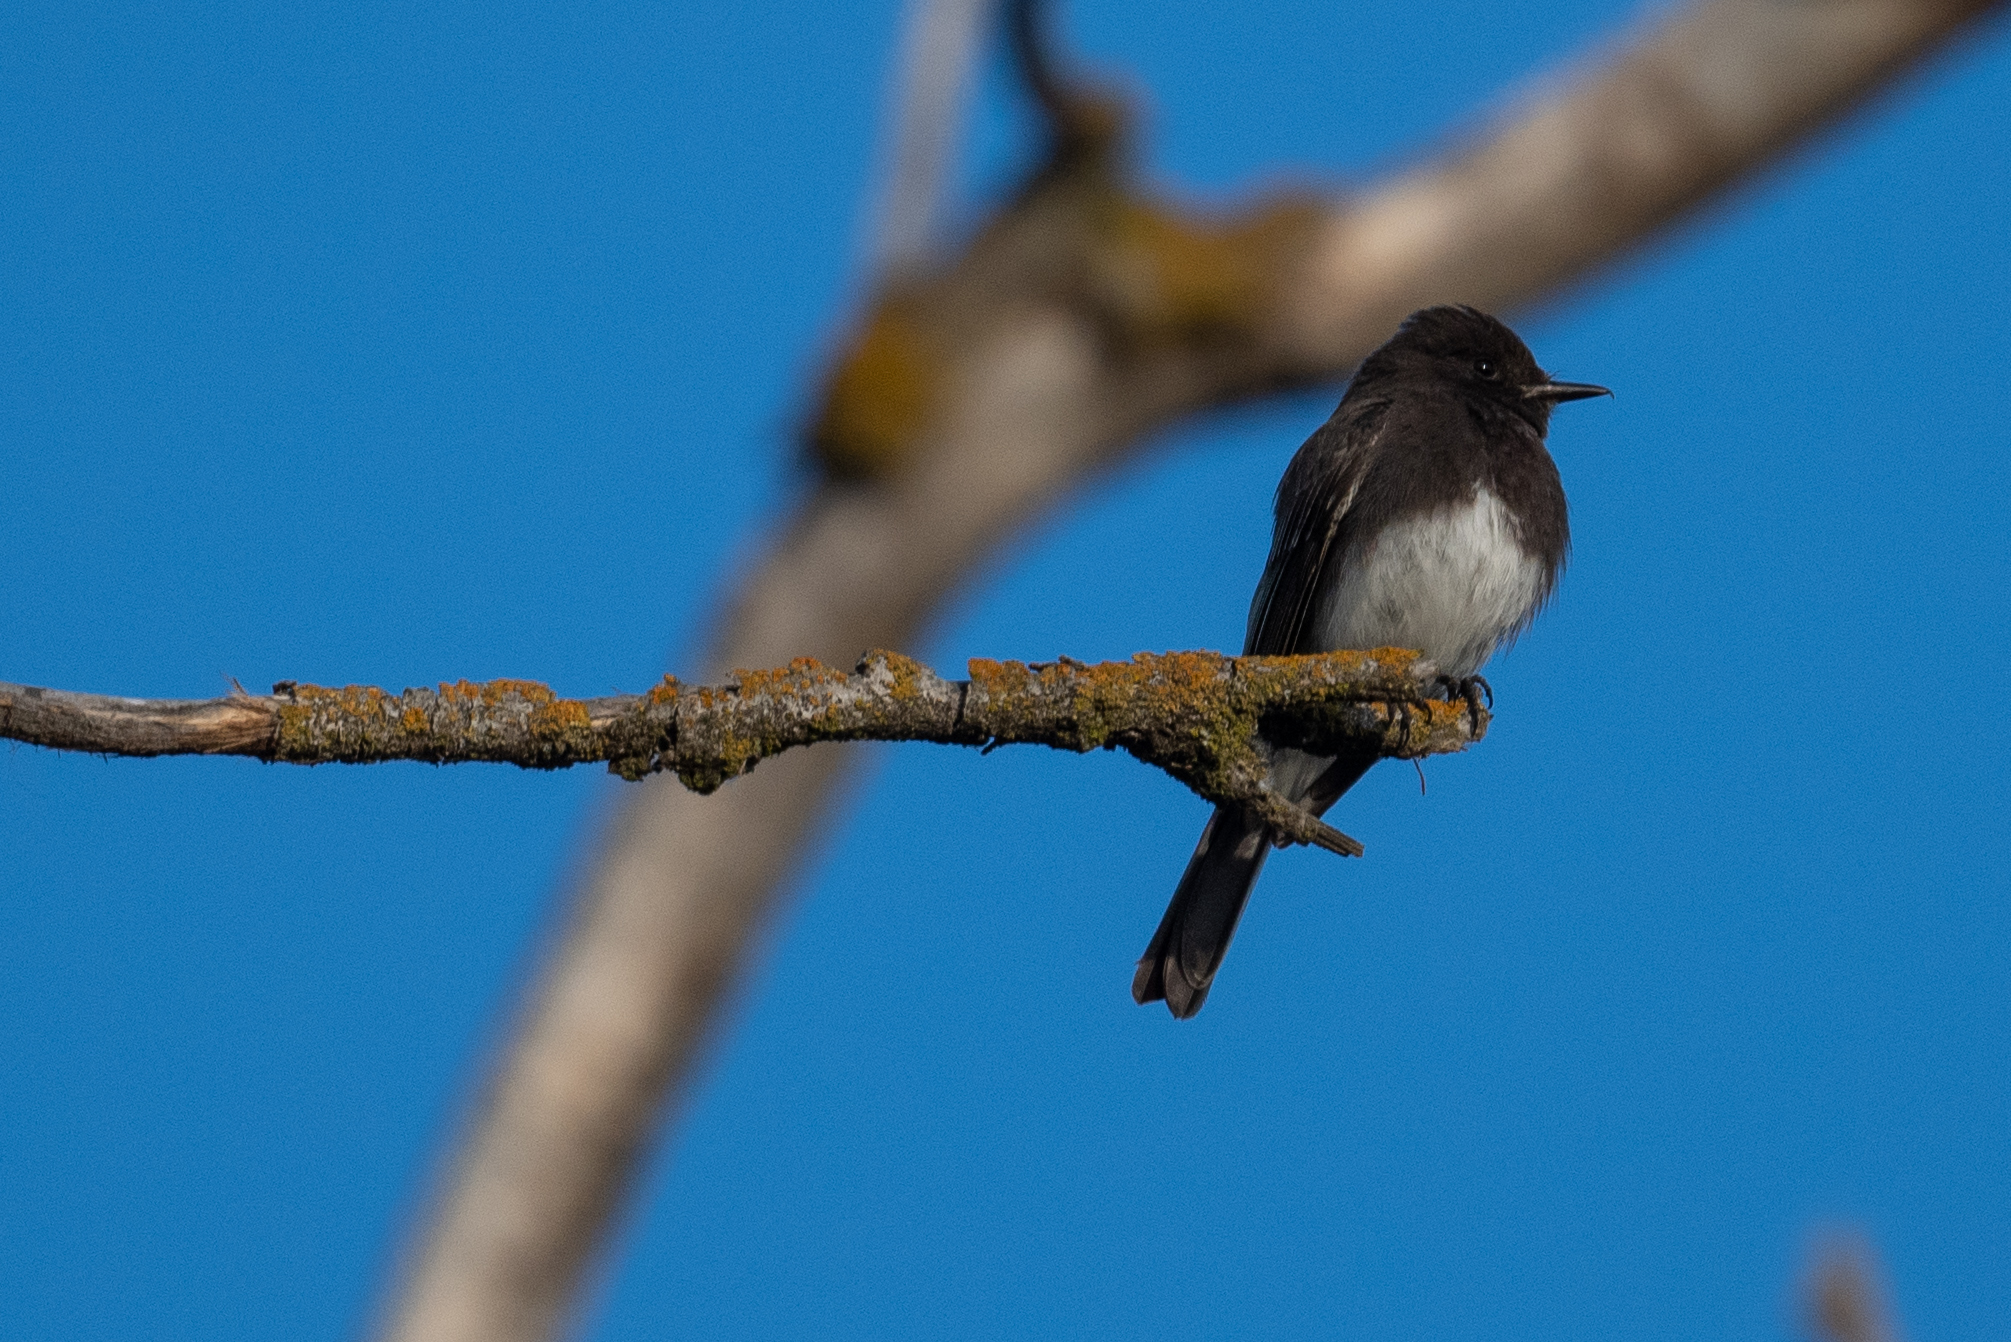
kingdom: Animalia
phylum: Chordata
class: Aves
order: Passeriformes
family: Tyrannidae
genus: Sayornis
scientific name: Sayornis nigricans
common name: Black phoebe
